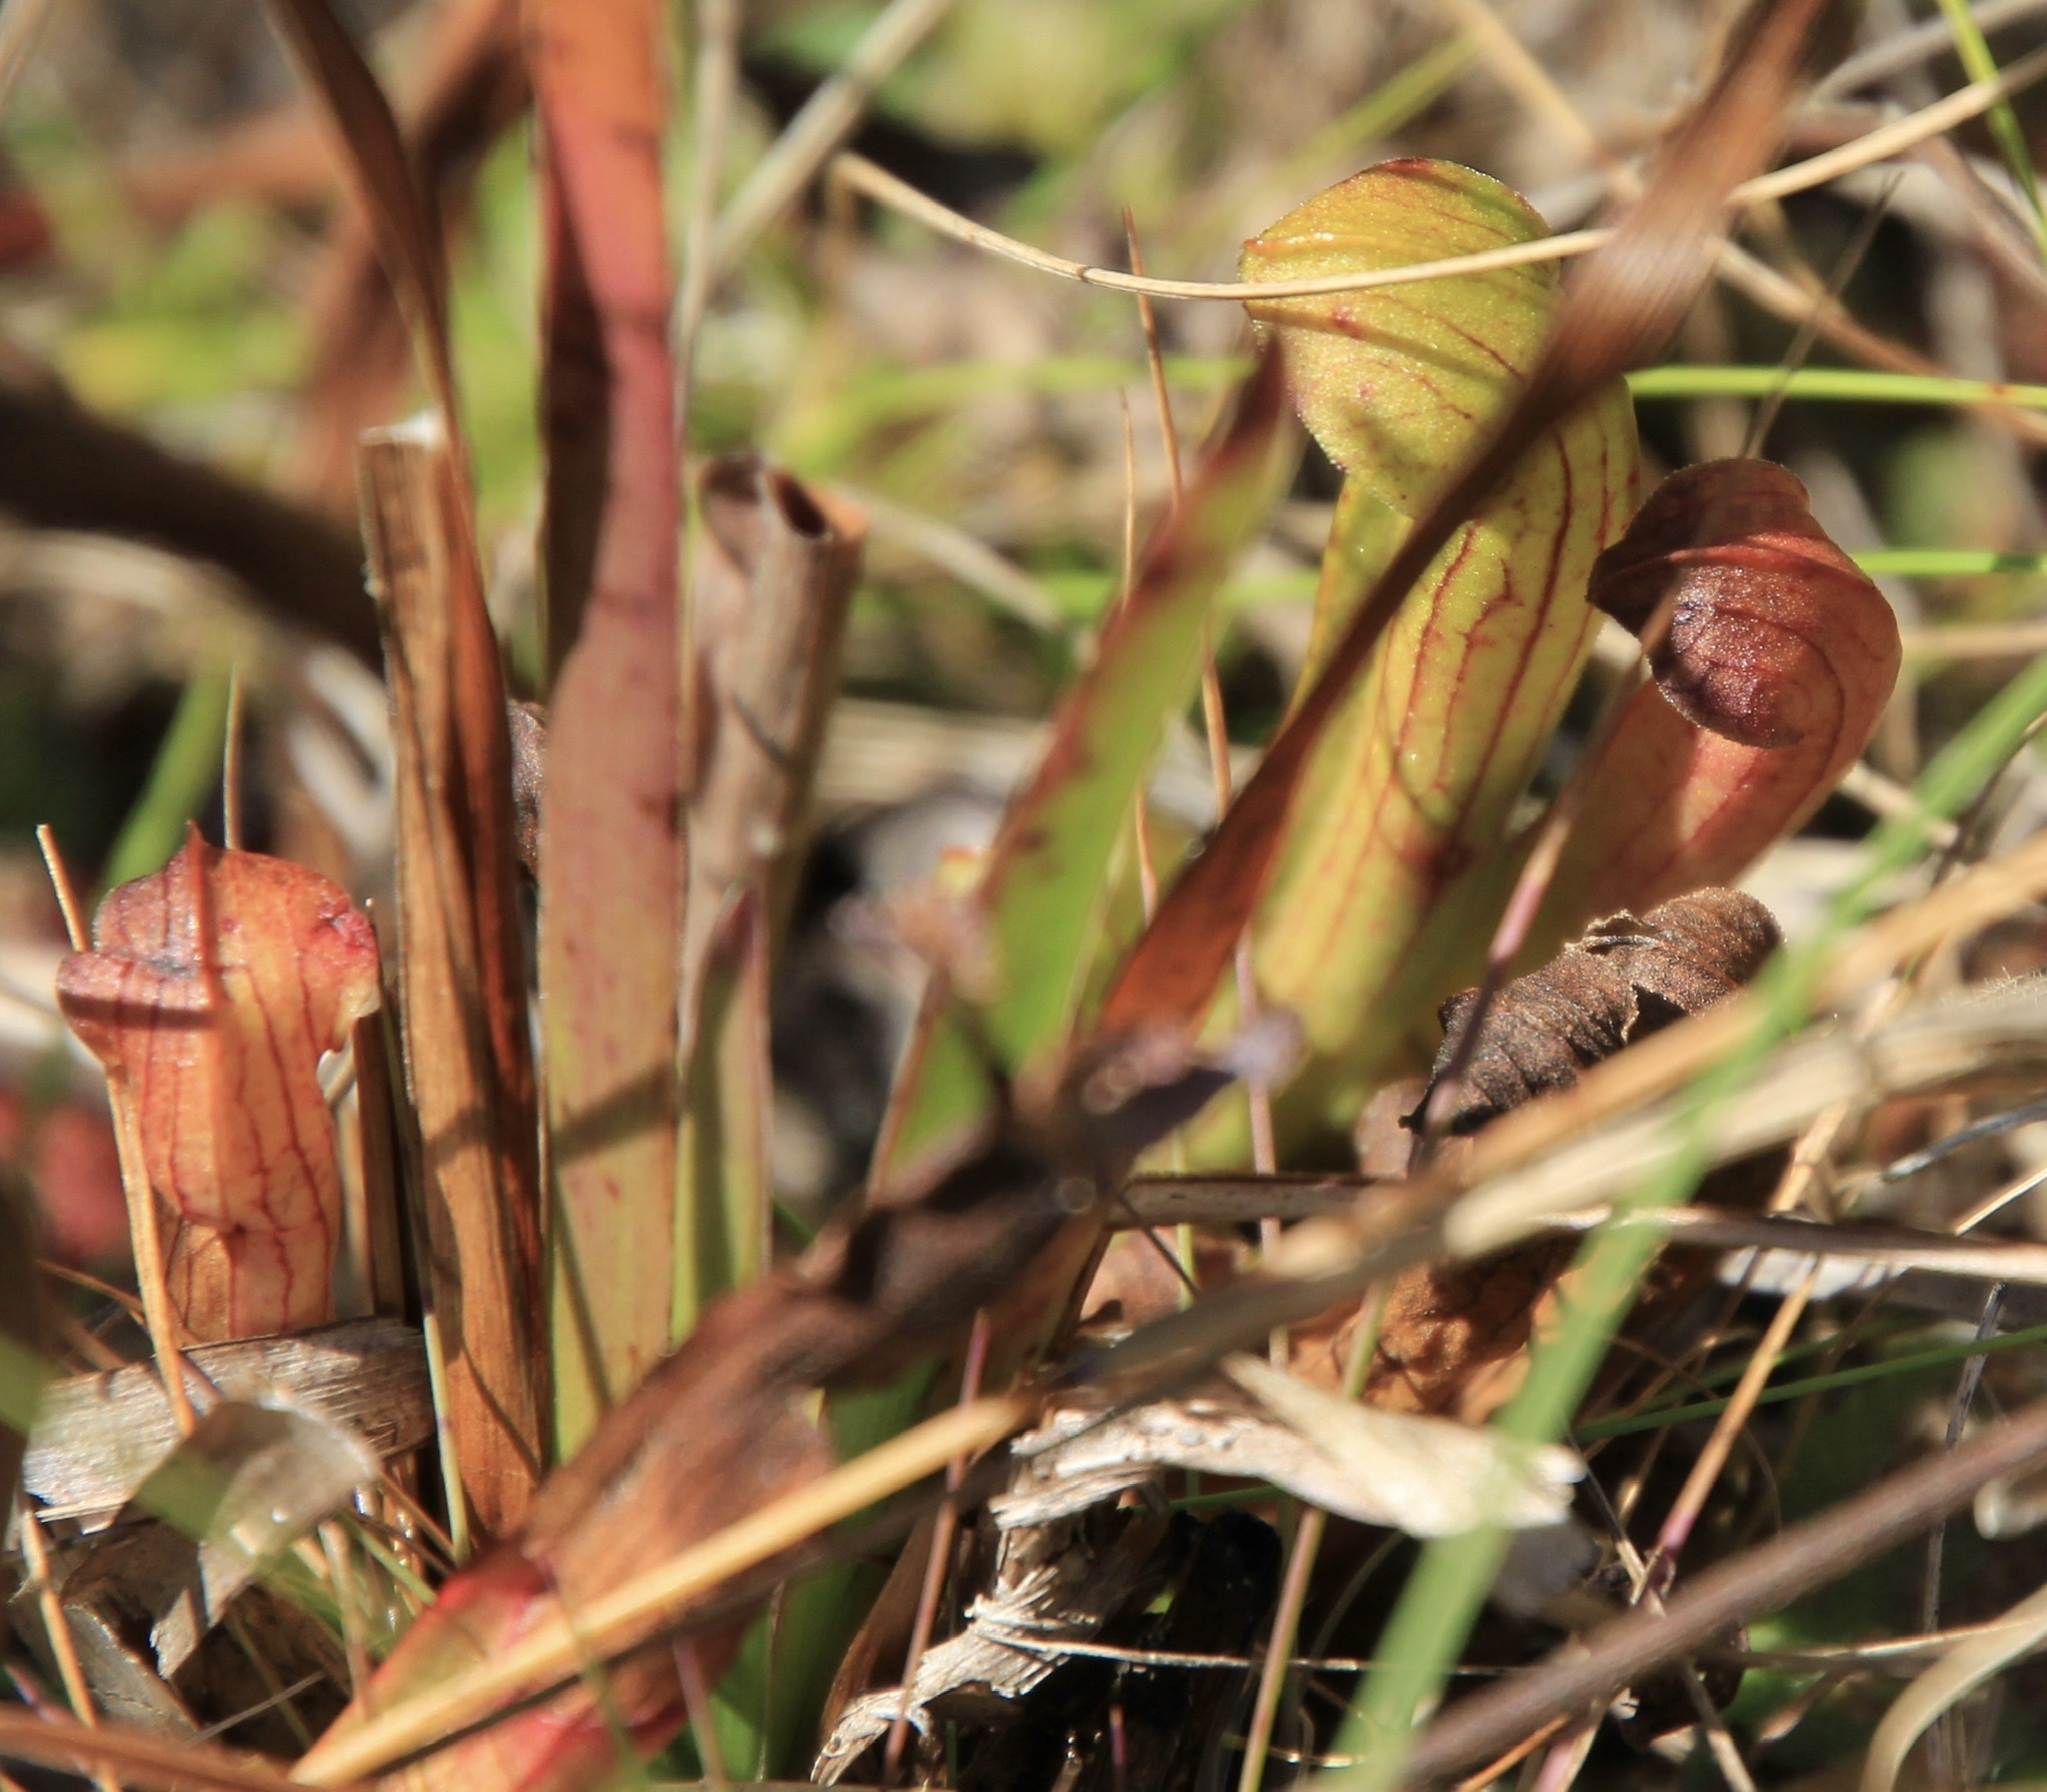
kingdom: Plantae
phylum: Tracheophyta
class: Magnoliopsida
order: Ericales
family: Sarraceniaceae
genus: Sarracenia
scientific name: Sarracenia alata
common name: Yellow trumpets
